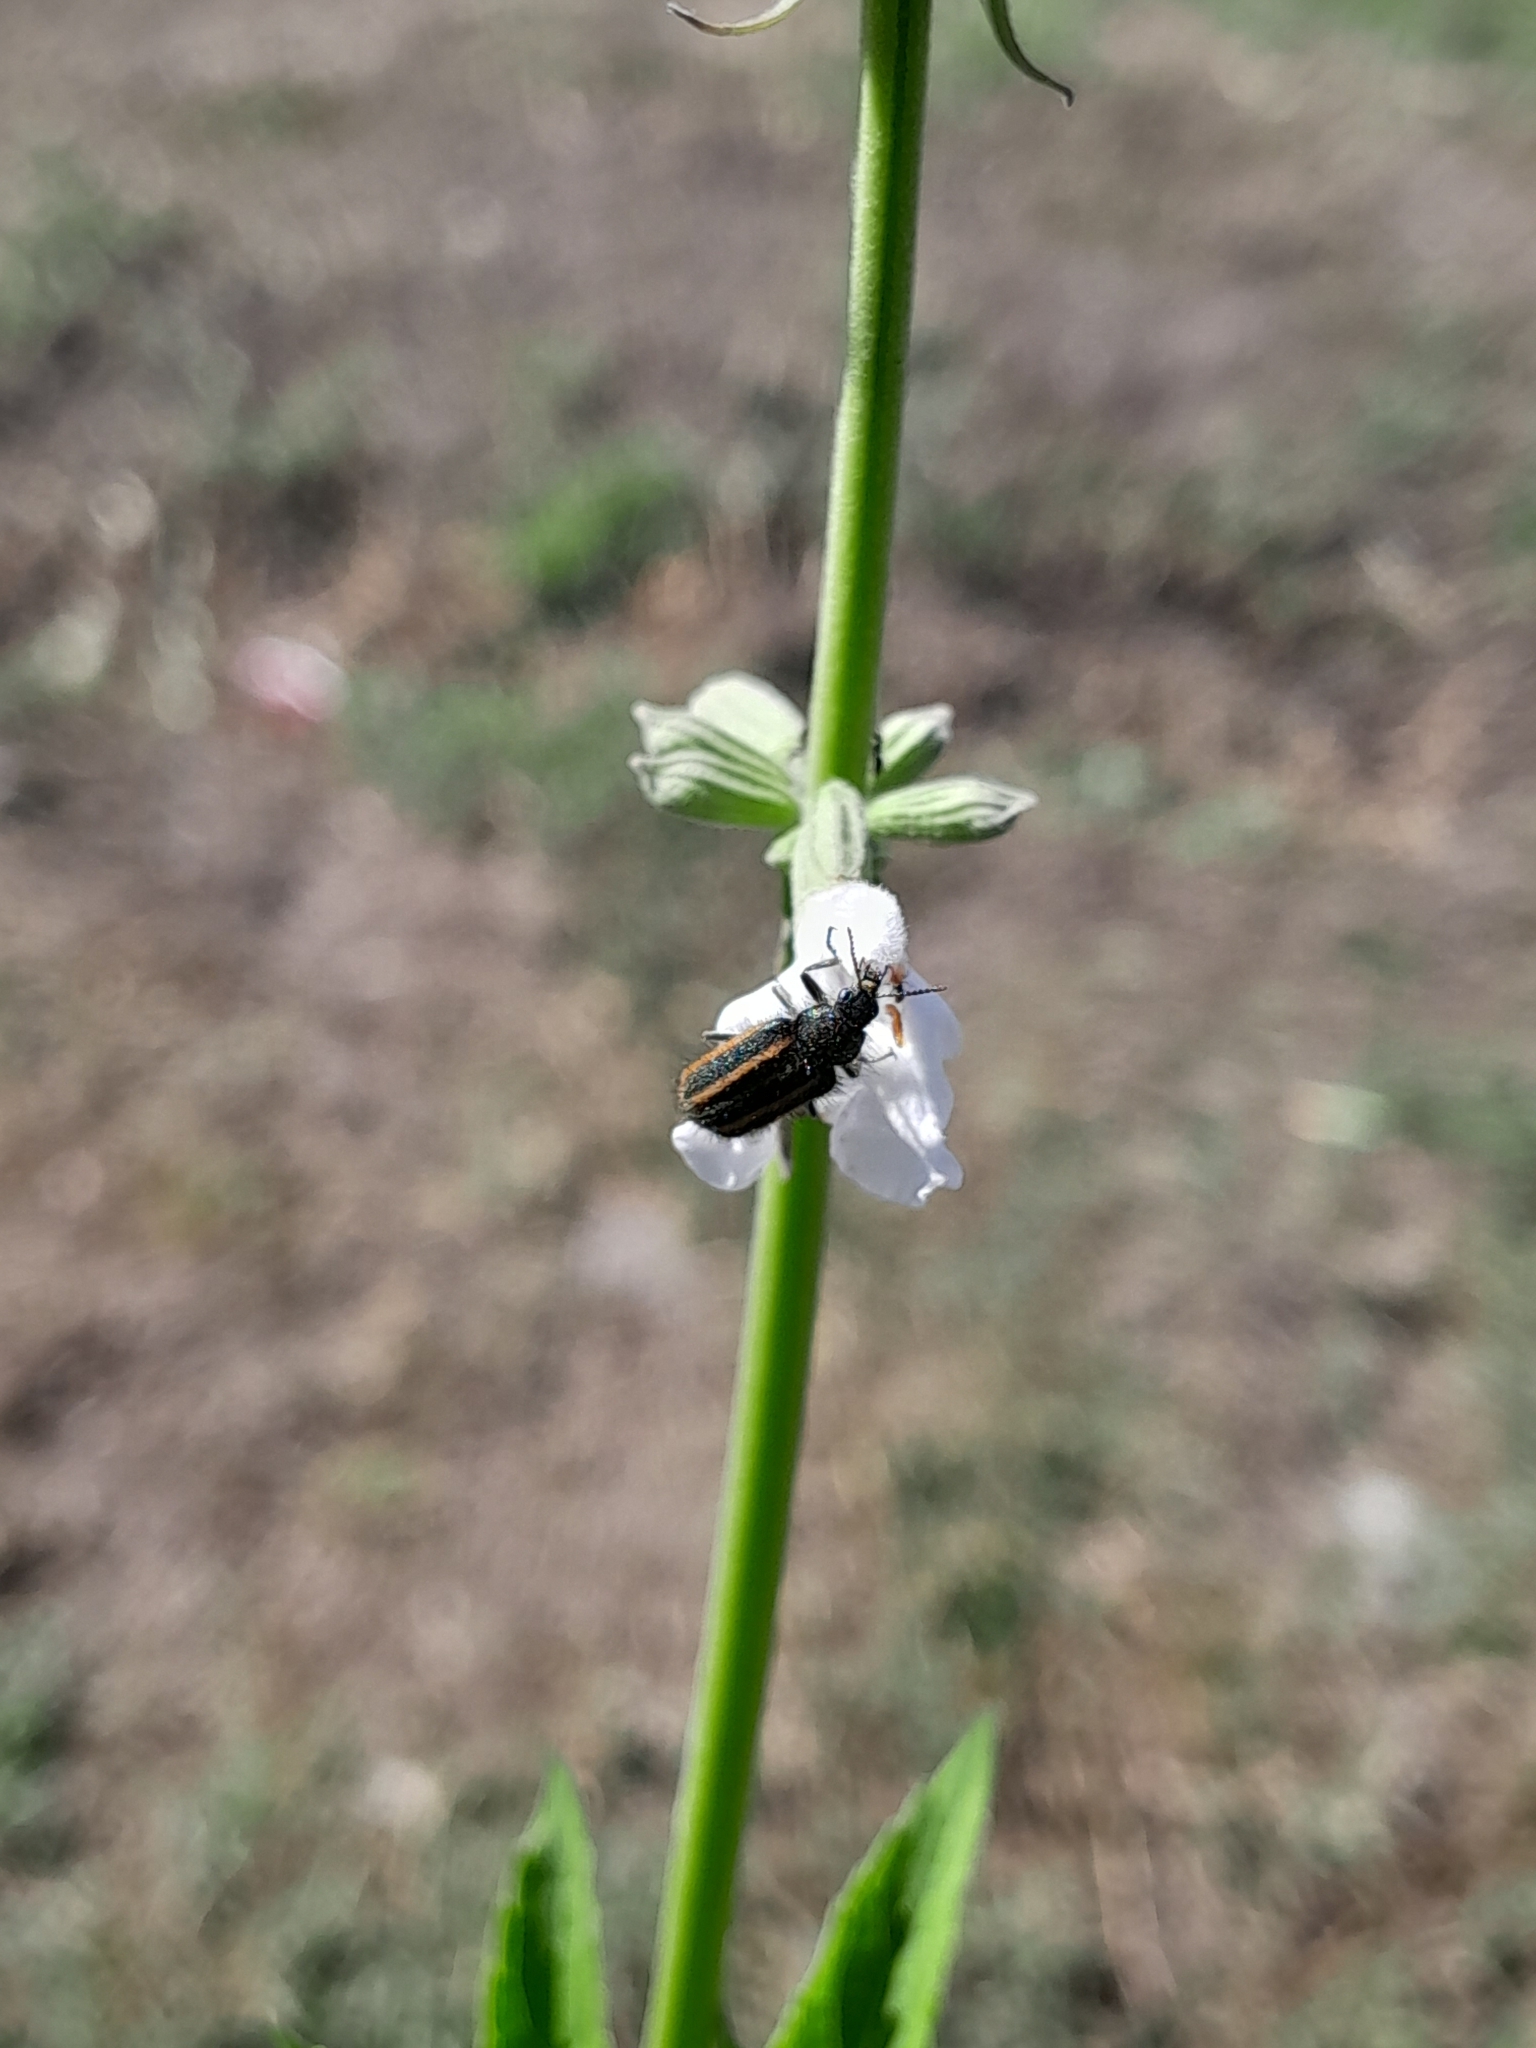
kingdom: Animalia
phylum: Arthropoda
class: Insecta
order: Coleoptera
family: Melyridae
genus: Astylus
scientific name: Astylus
